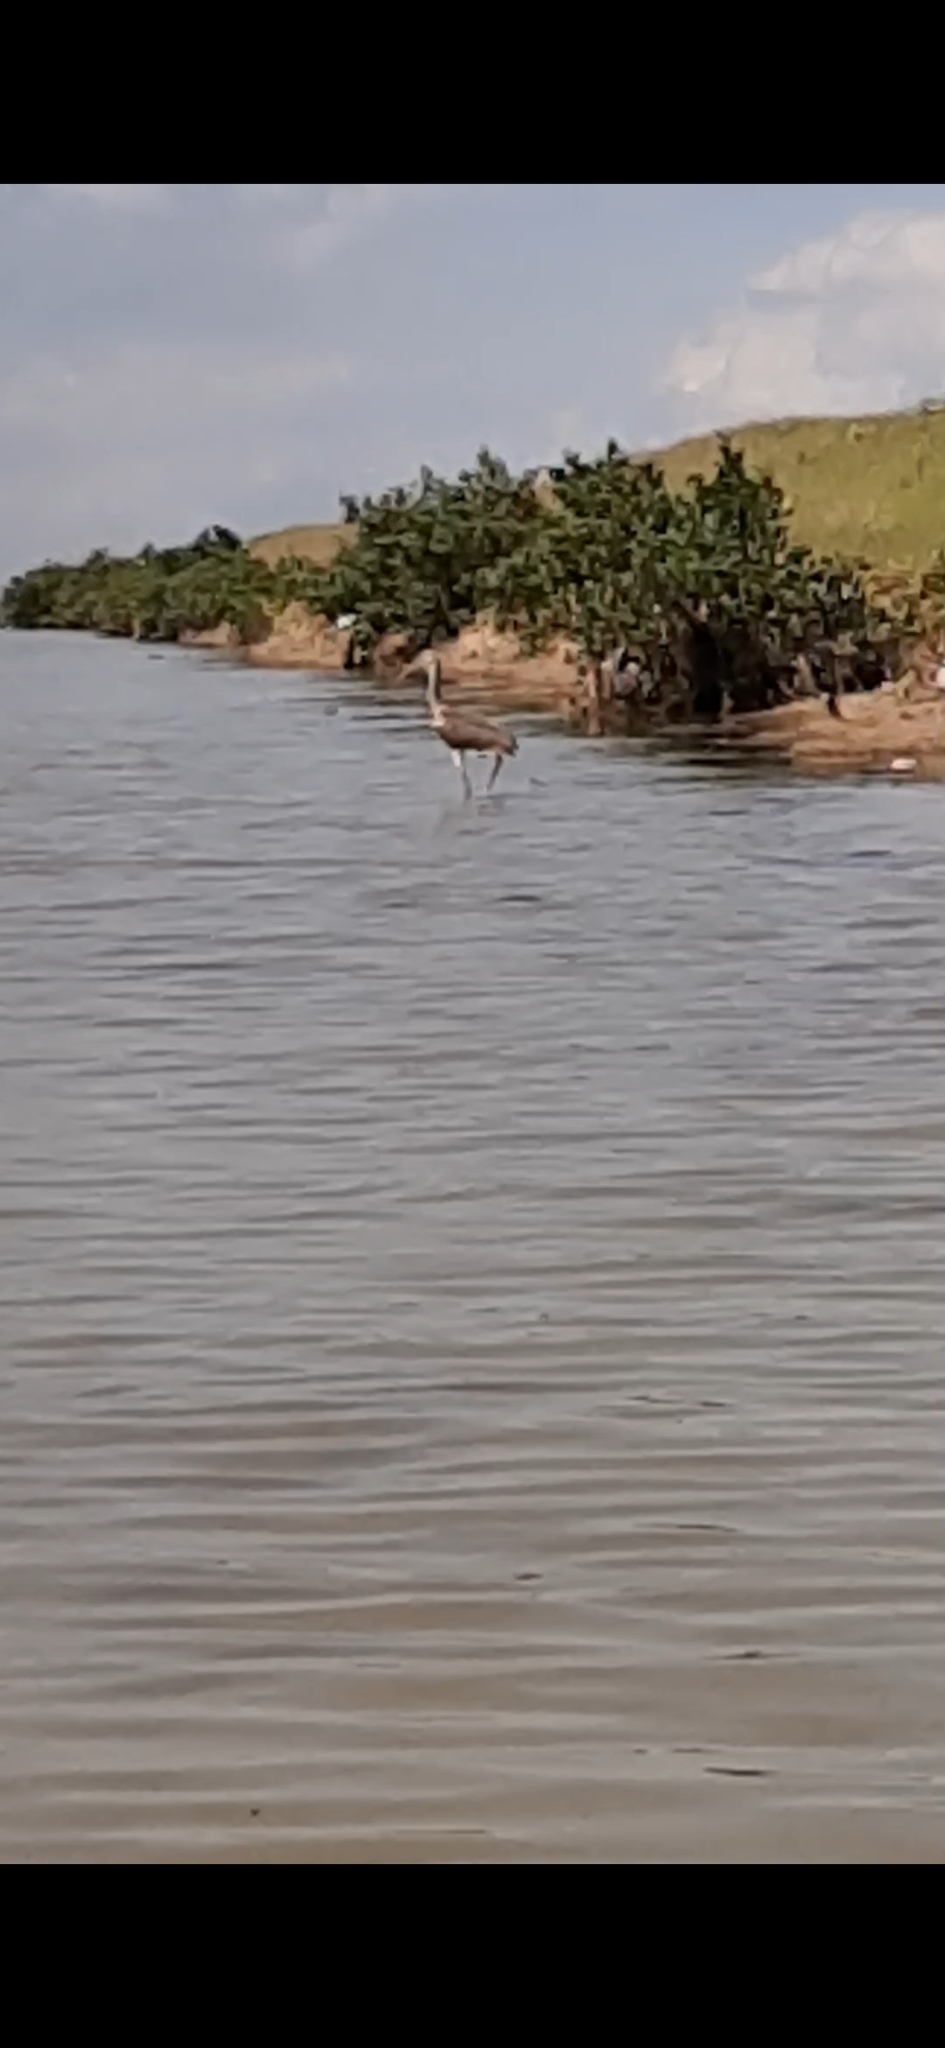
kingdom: Animalia
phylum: Chordata
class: Aves
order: Pelecaniformes
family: Threskiornithidae
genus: Eudocimus
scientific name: Eudocimus albus
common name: White ibis
